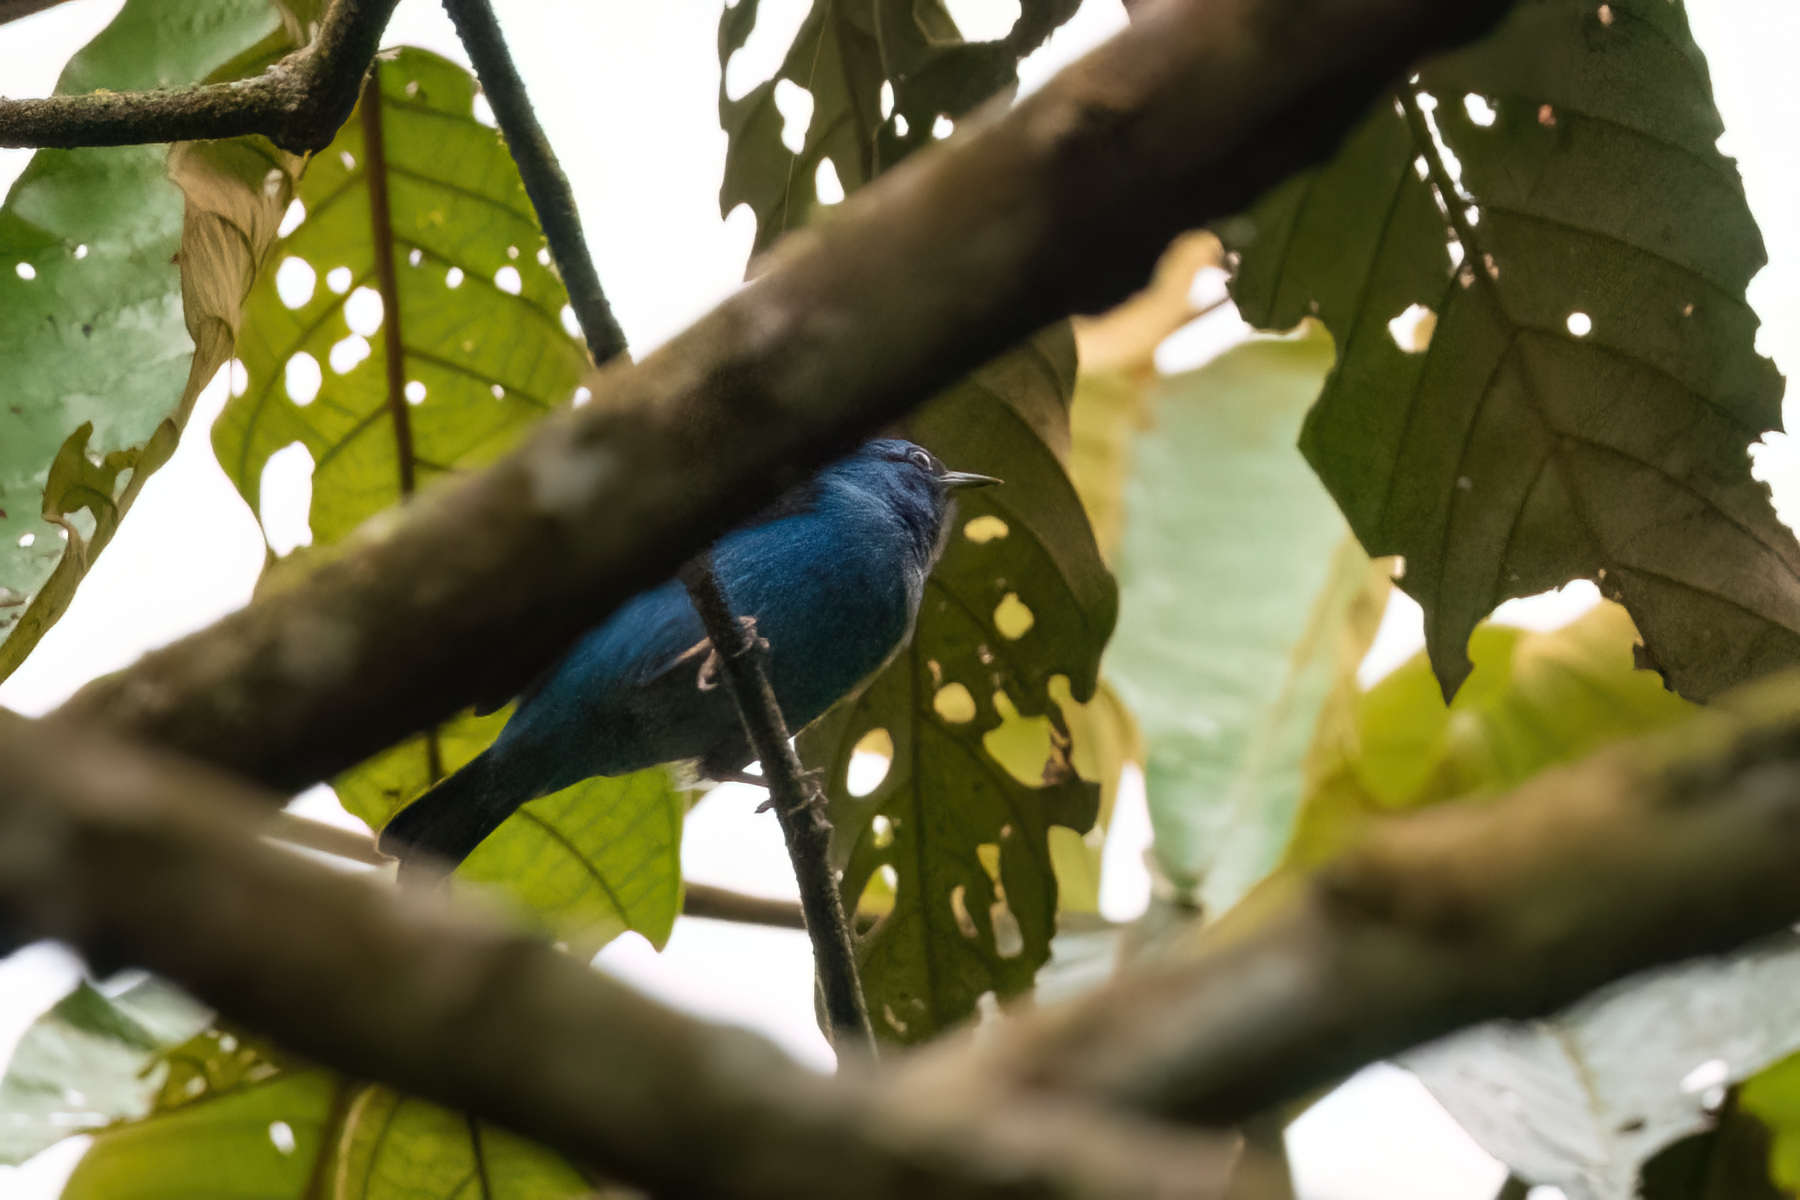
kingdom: Animalia
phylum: Chordata
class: Aves
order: Passeriformes
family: Thraupidae
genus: Dacnis
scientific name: Dacnis cayana
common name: Blue dacnis
